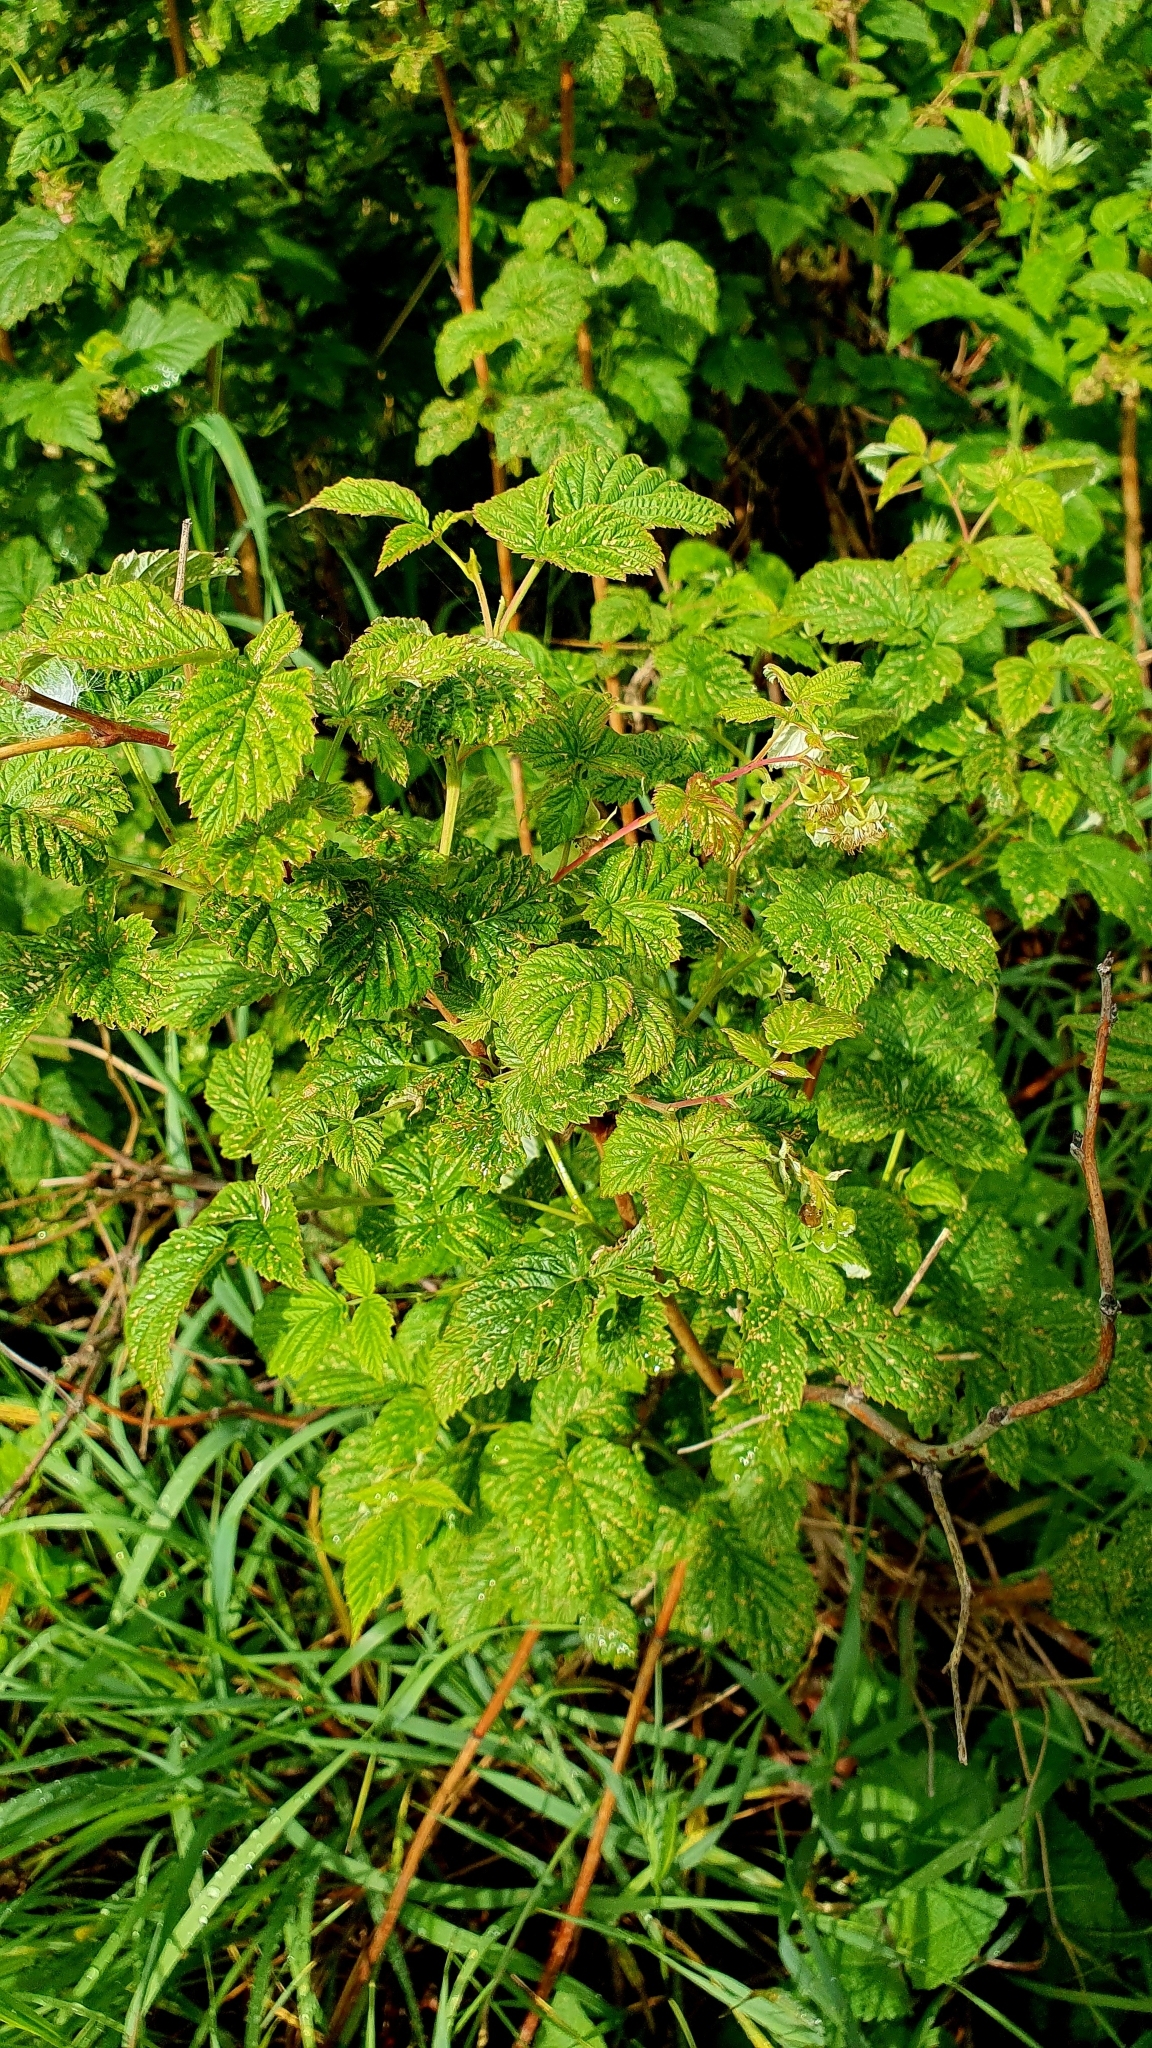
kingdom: Plantae
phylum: Tracheophyta
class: Magnoliopsida
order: Rosales
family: Rosaceae
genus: Rubus
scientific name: Rubus idaeus
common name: Raspberry
